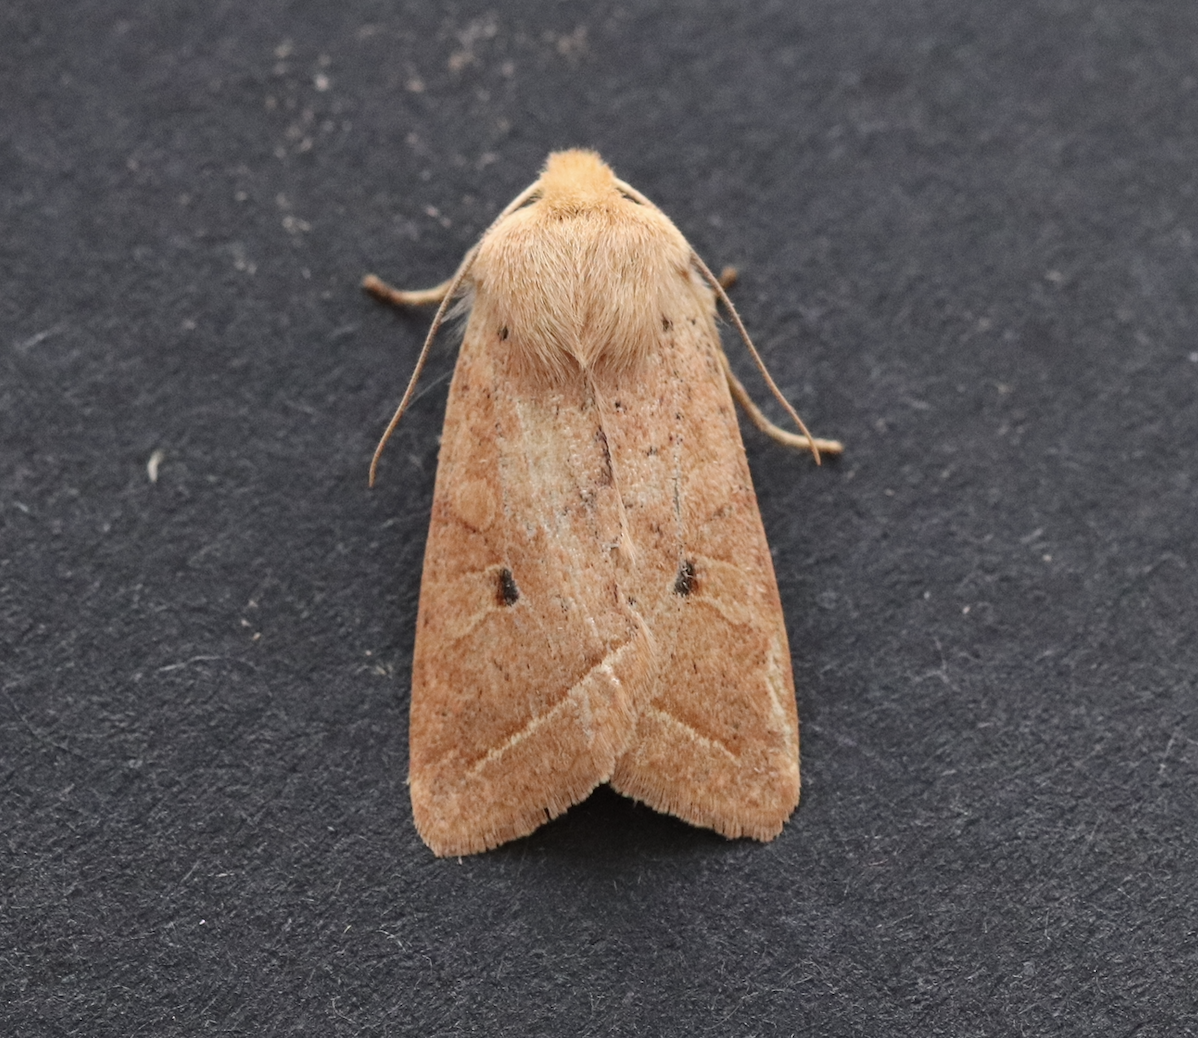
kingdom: Animalia
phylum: Arthropoda
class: Insecta
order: Lepidoptera
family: Noctuidae
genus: Agrochola
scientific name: Agrochola macilenta
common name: Yellow-line quaker
